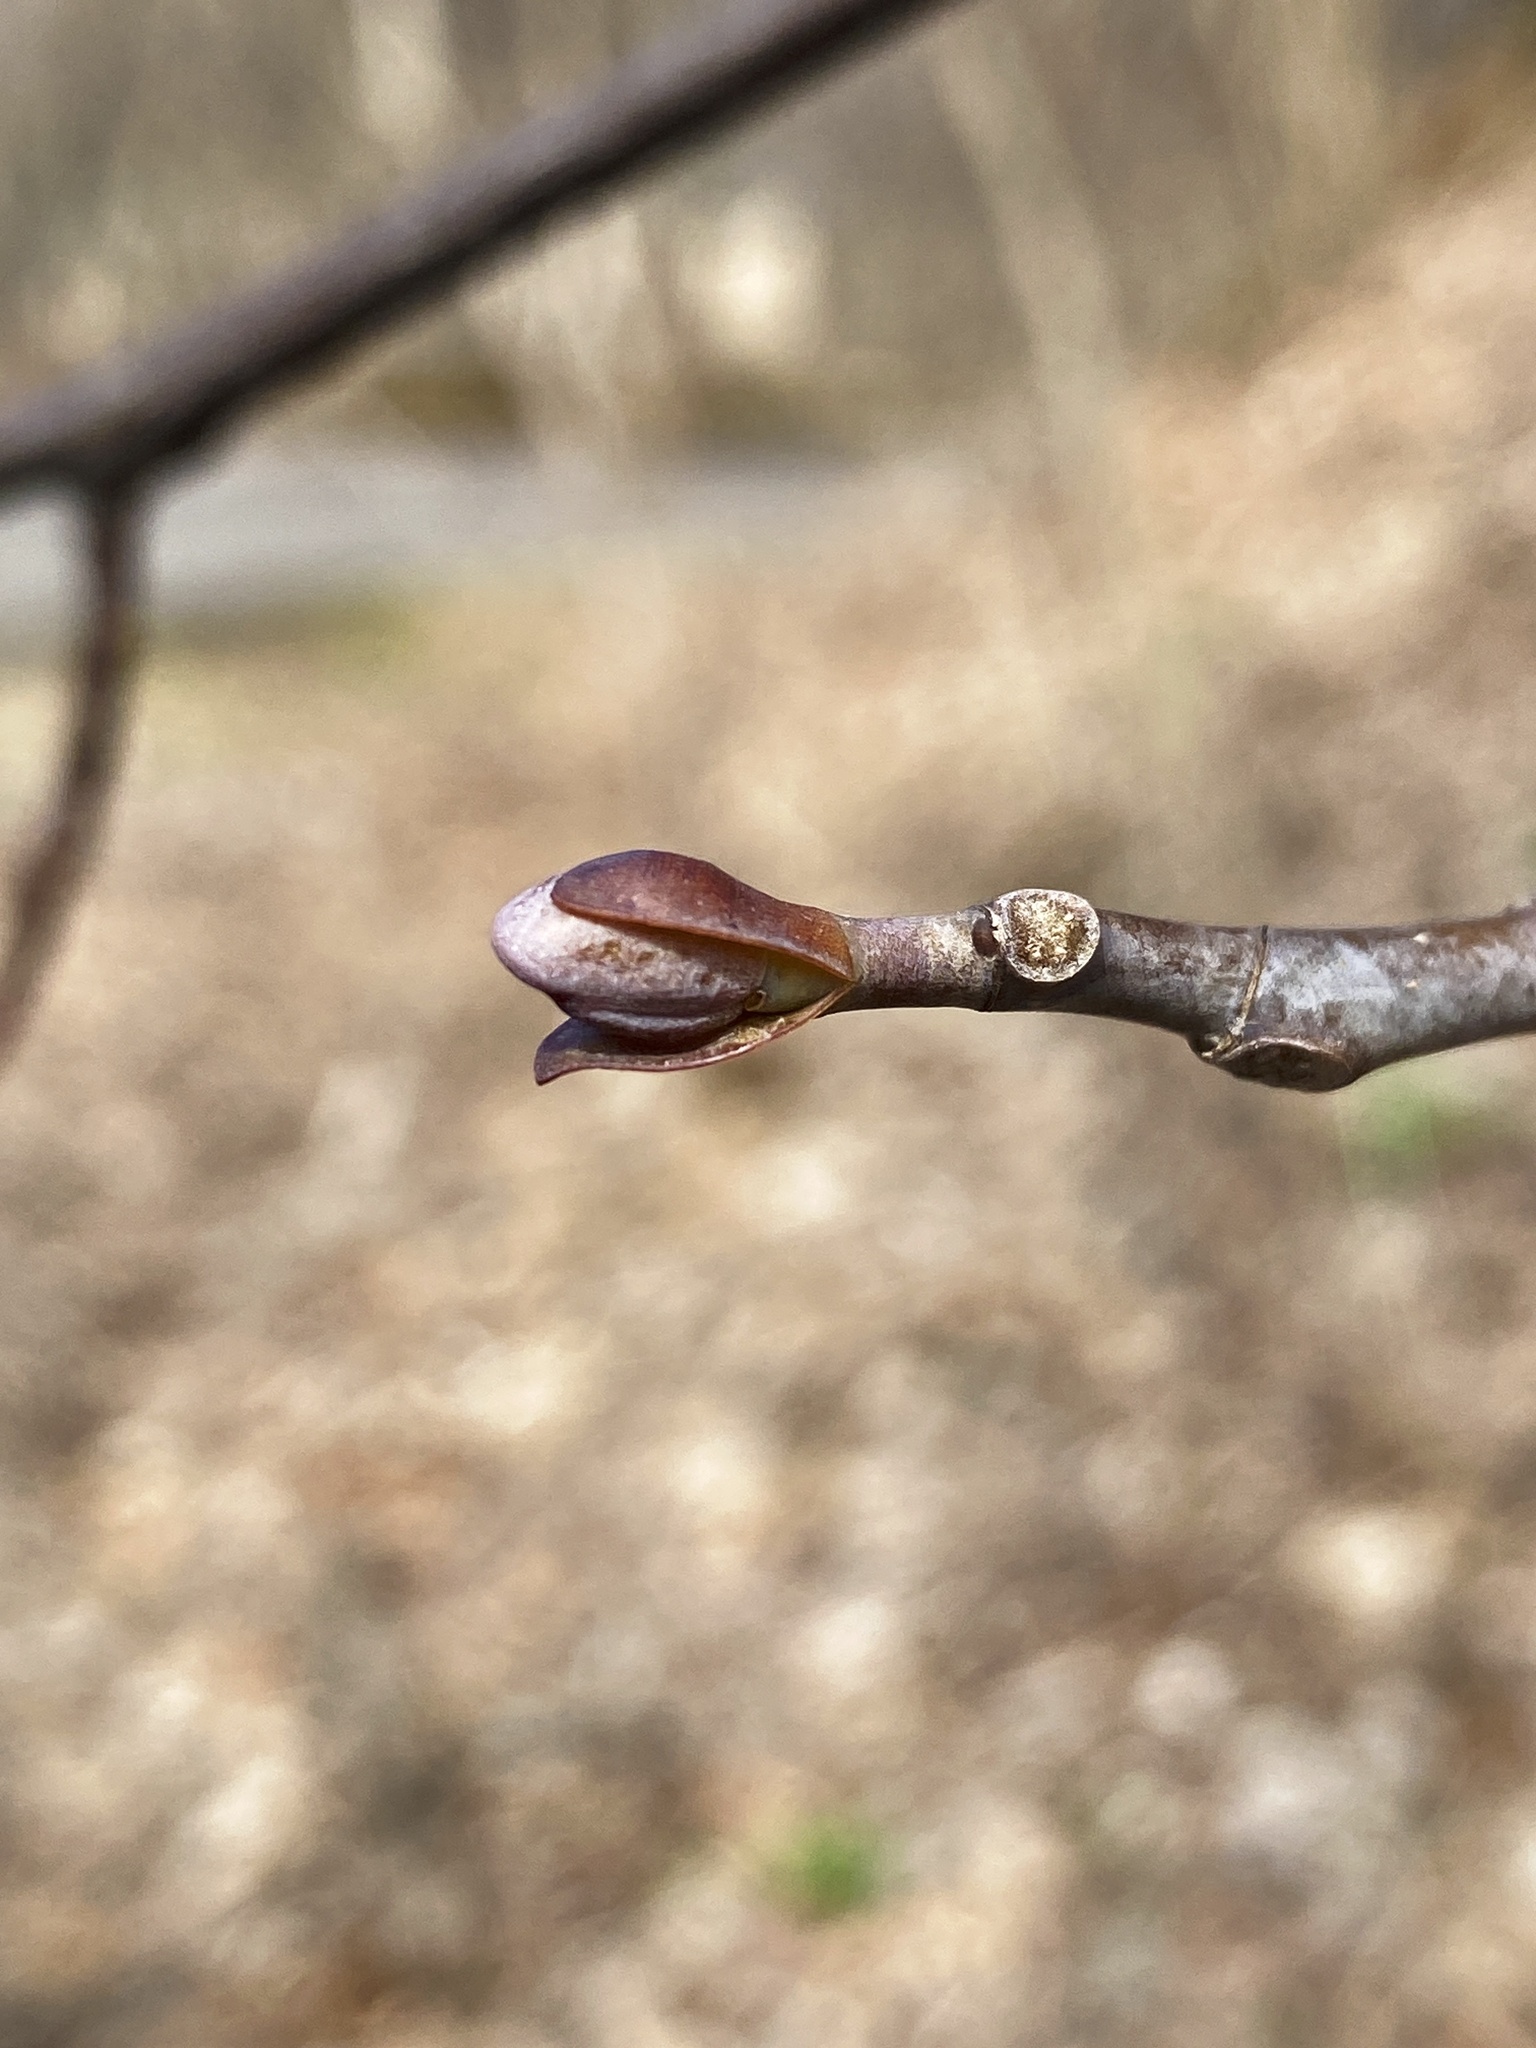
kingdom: Plantae
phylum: Tracheophyta
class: Magnoliopsida
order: Magnoliales
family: Magnoliaceae
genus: Liriodendron
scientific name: Liriodendron tulipifera
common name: Tulip tree
